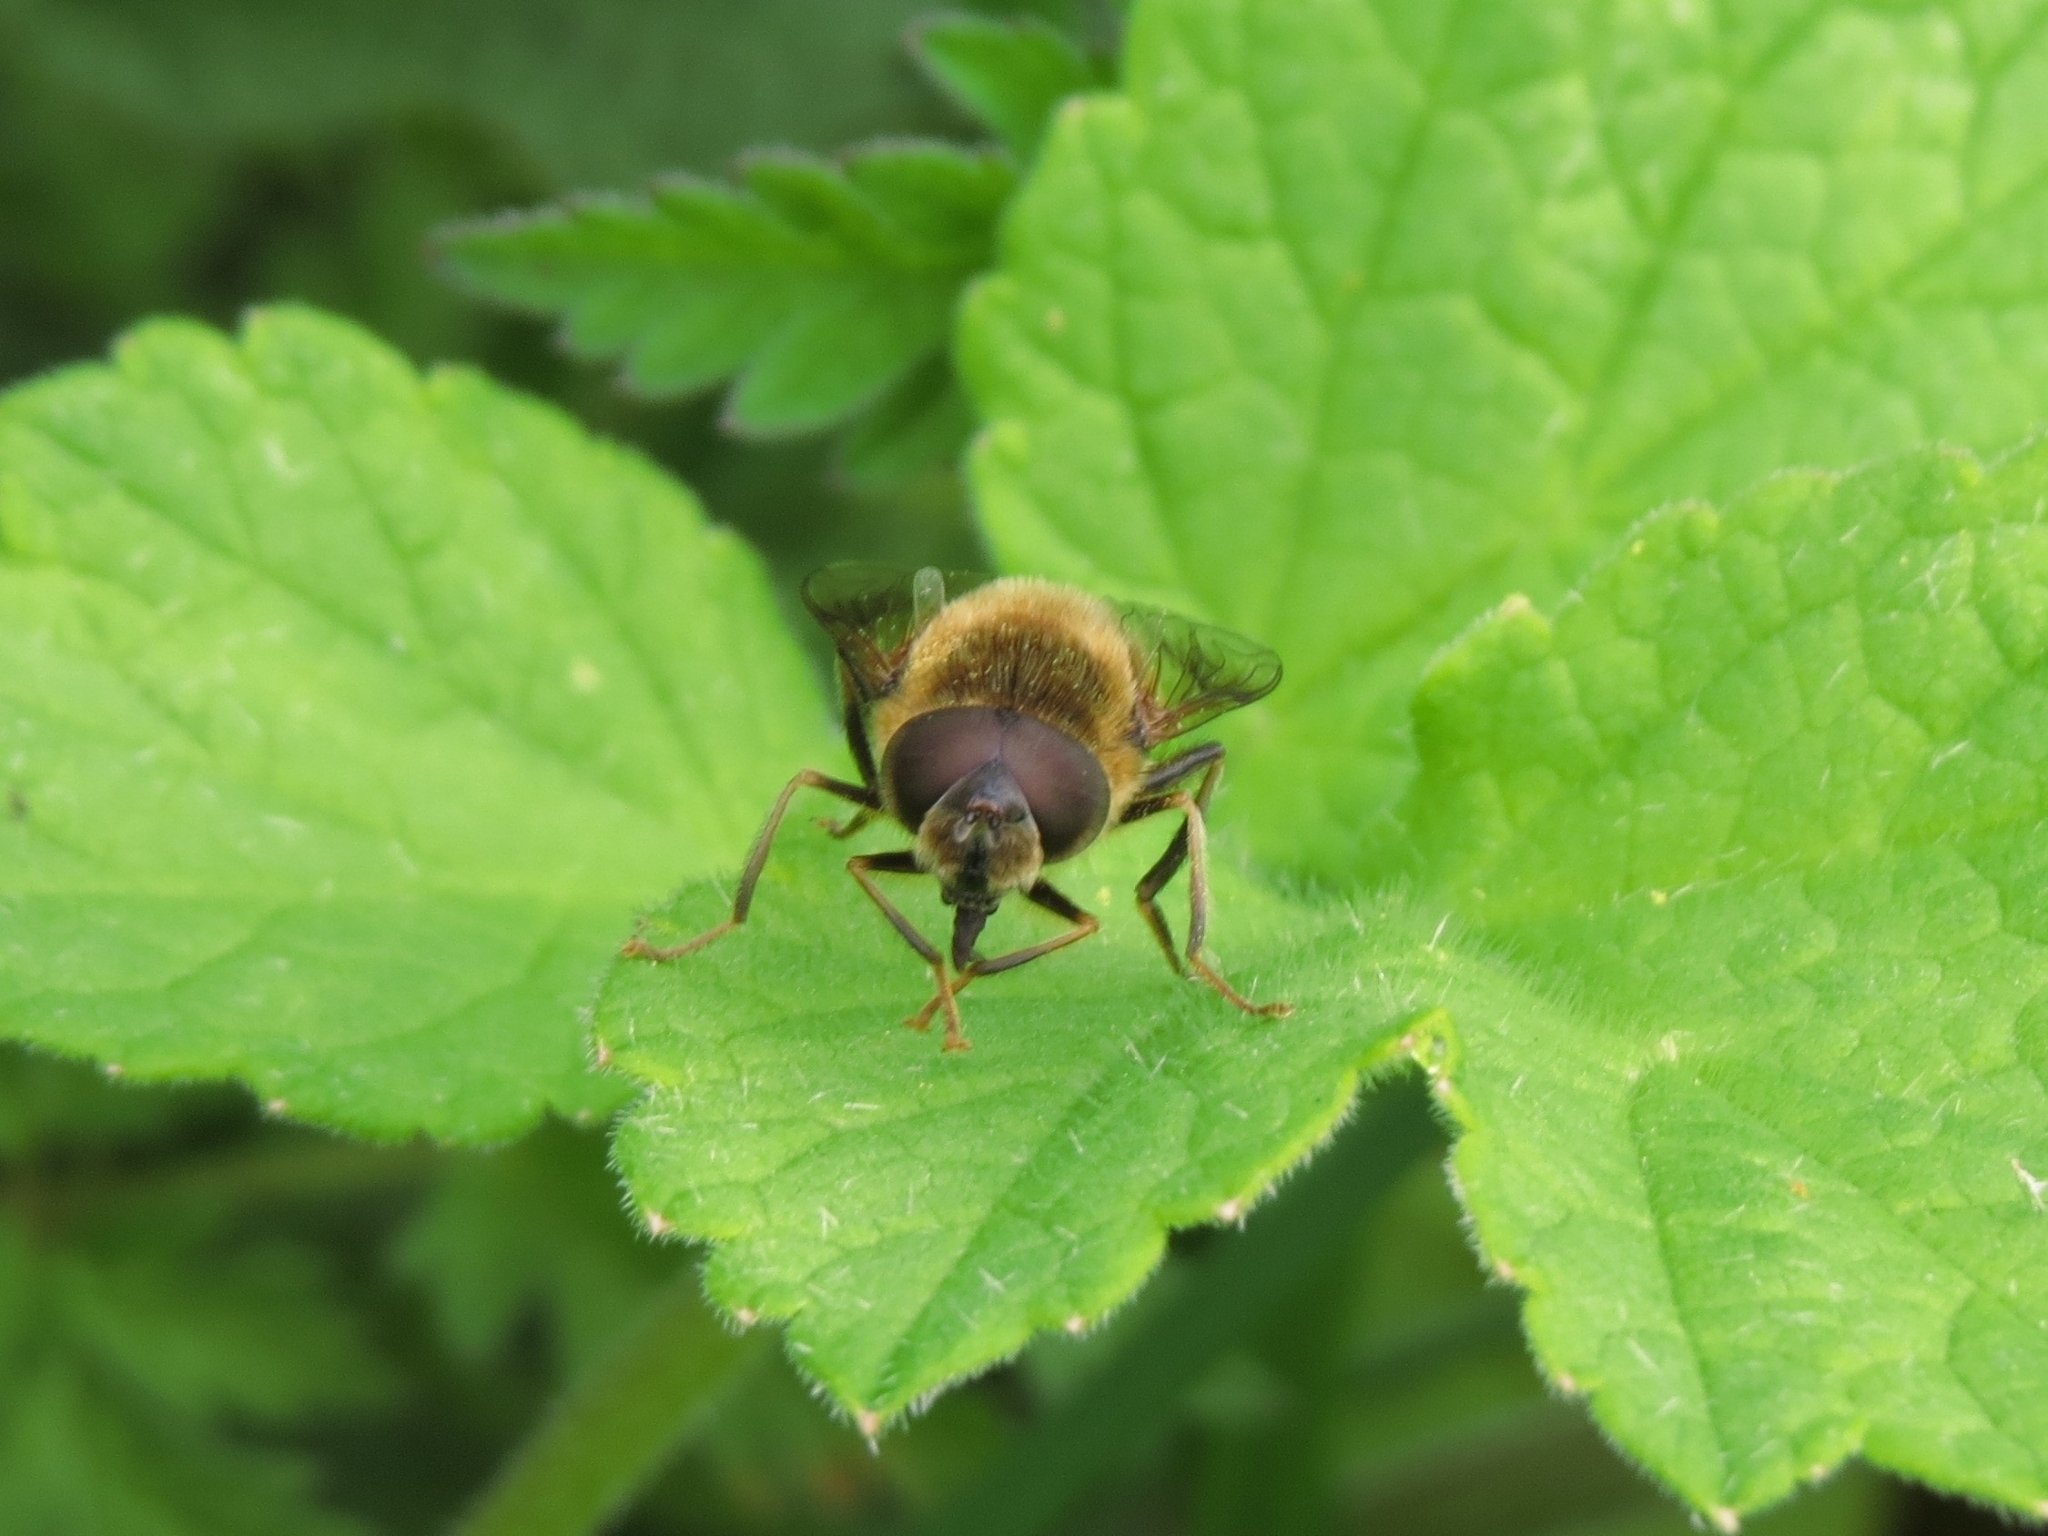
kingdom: Animalia
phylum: Arthropoda
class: Insecta
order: Diptera
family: Syrphidae
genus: Eristalis
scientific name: Eristalis pertinax
